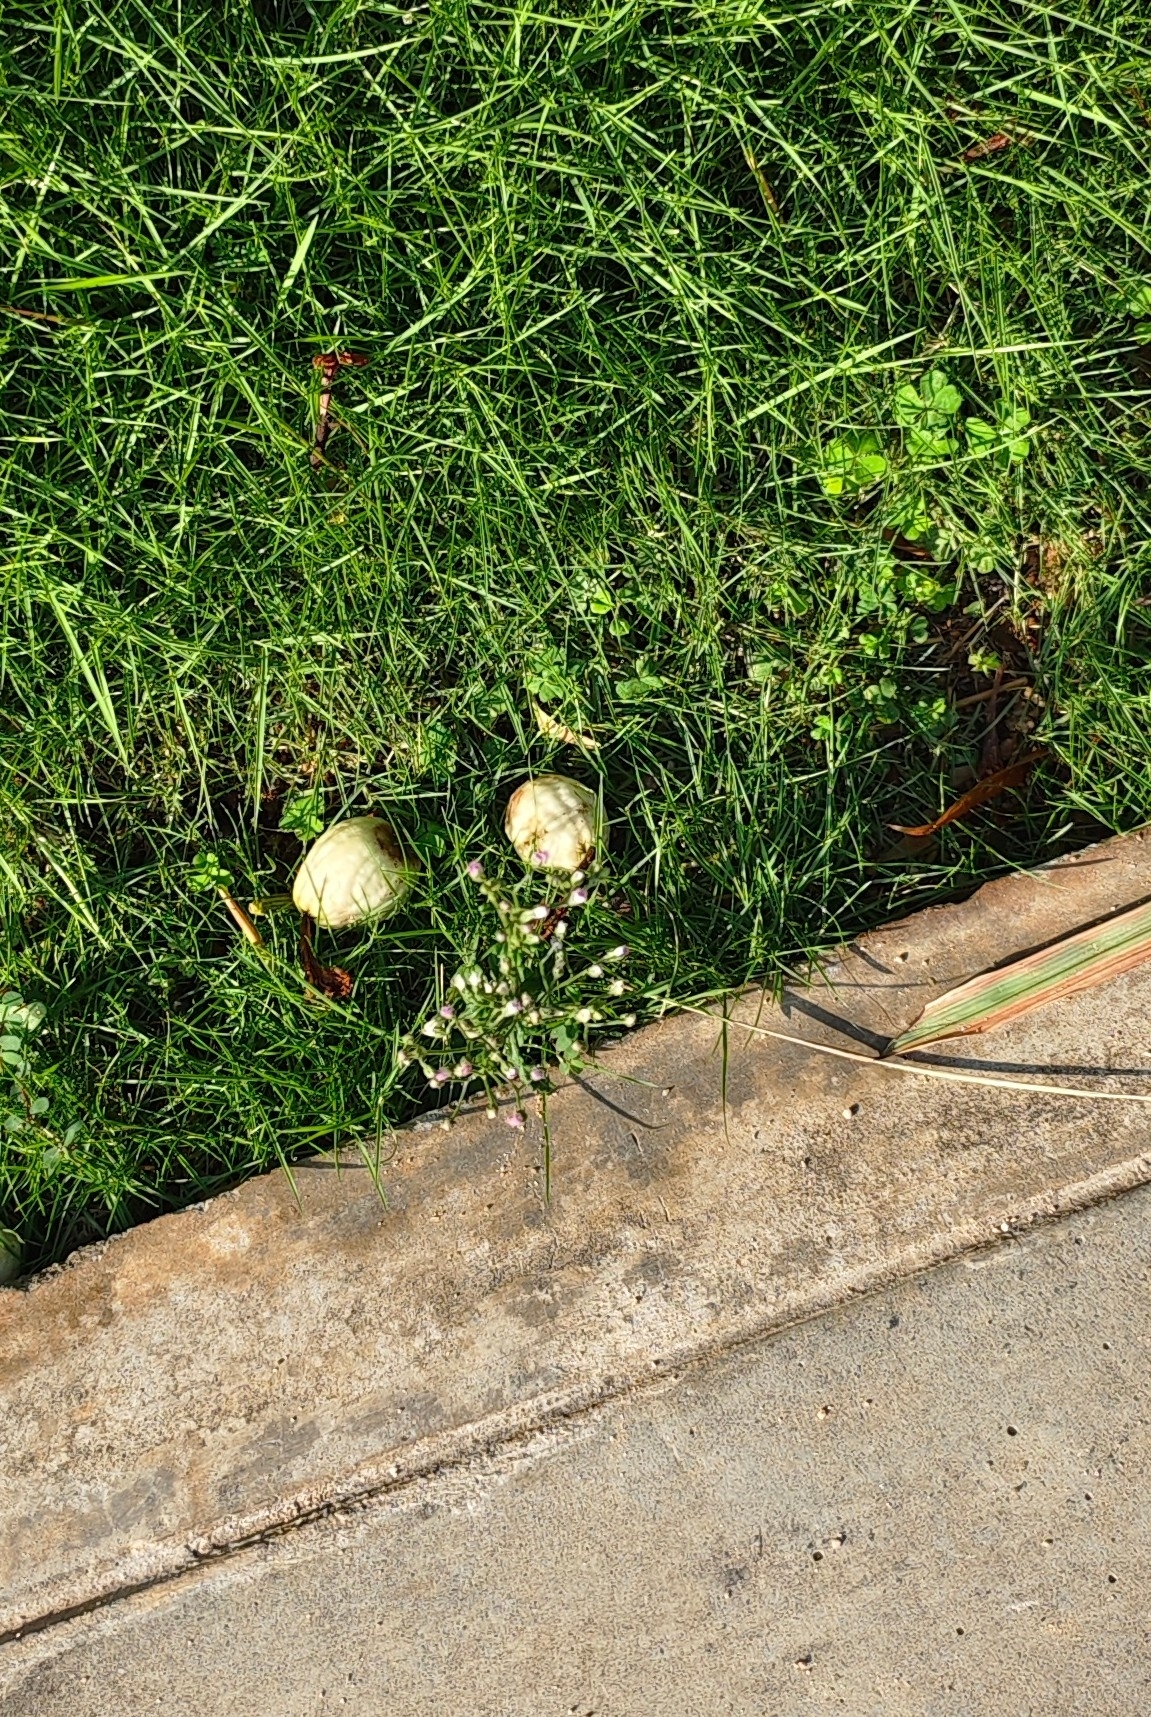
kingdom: Plantae
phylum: Tracheophyta
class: Magnoliopsida
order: Asterales
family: Asteraceae
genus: Cyanthillium
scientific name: Cyanthillium cinereum
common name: Little ironweed
